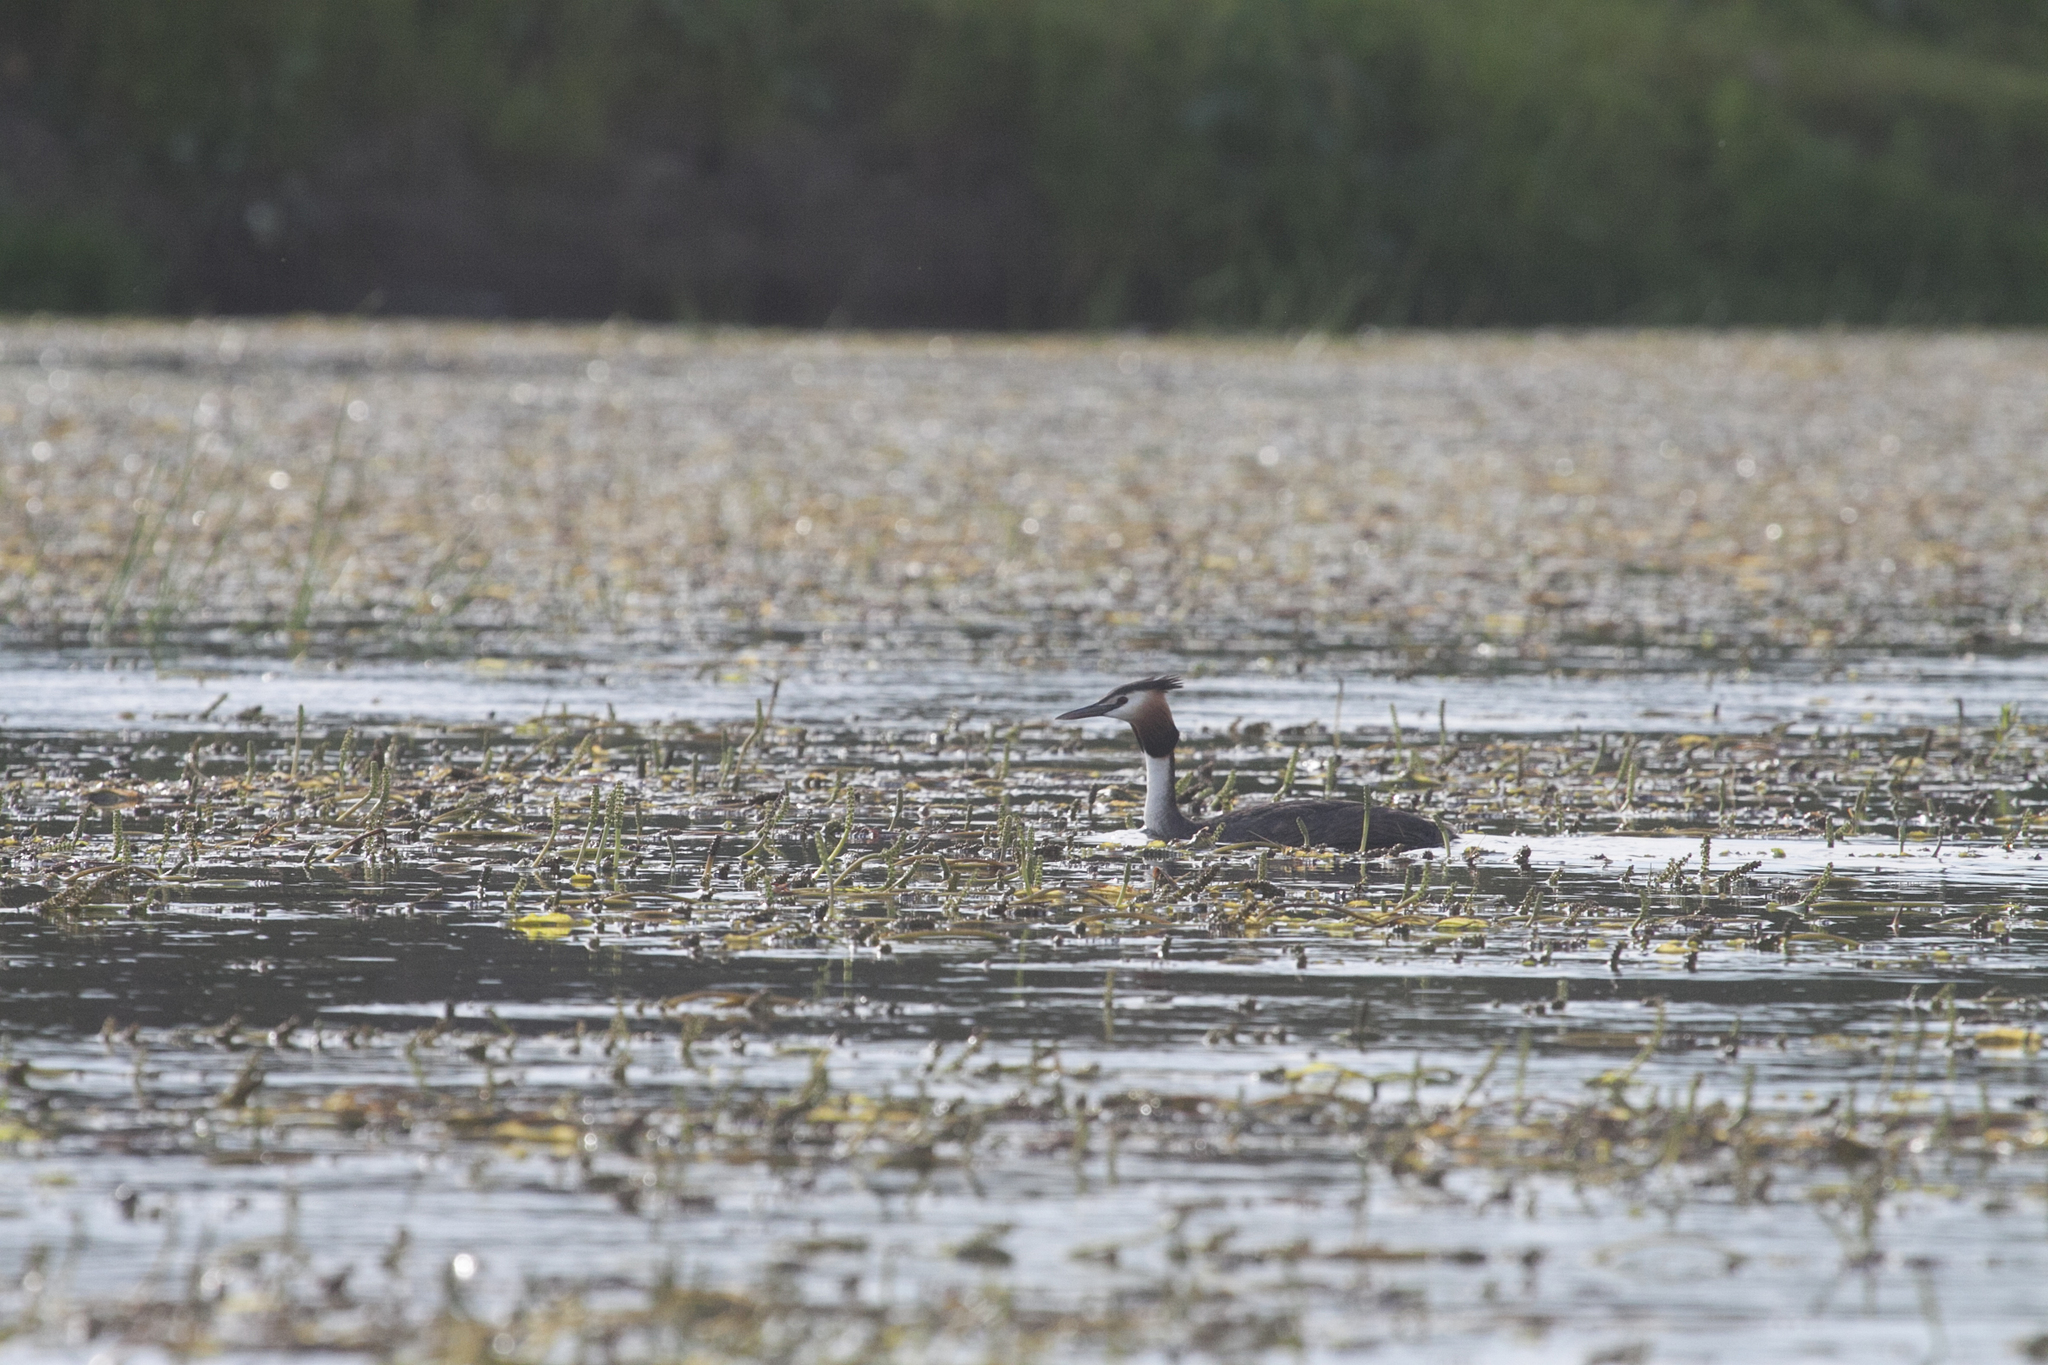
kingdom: Animalia
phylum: Chordata
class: Aves
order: Podicipediformes
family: Podicipedidae
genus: Podiceps
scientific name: Podiceps cristatus
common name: Great crested grebe
